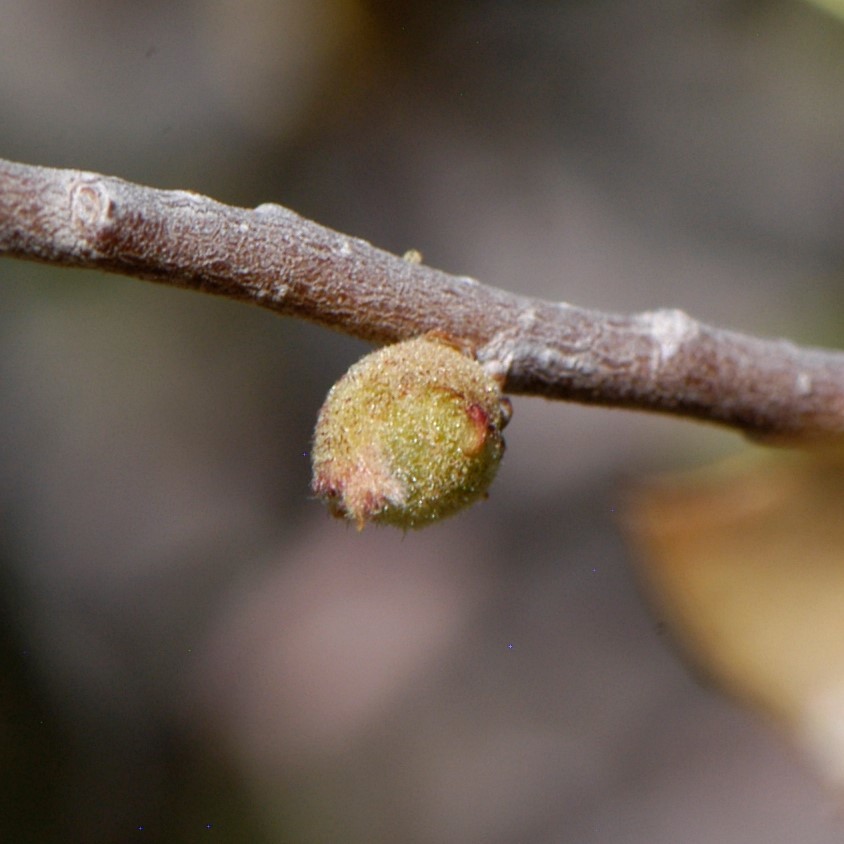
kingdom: Animalia
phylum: Arthropoda
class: Insecta
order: Hymenoptera
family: Cynipidae
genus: Andricus
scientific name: Andricus
